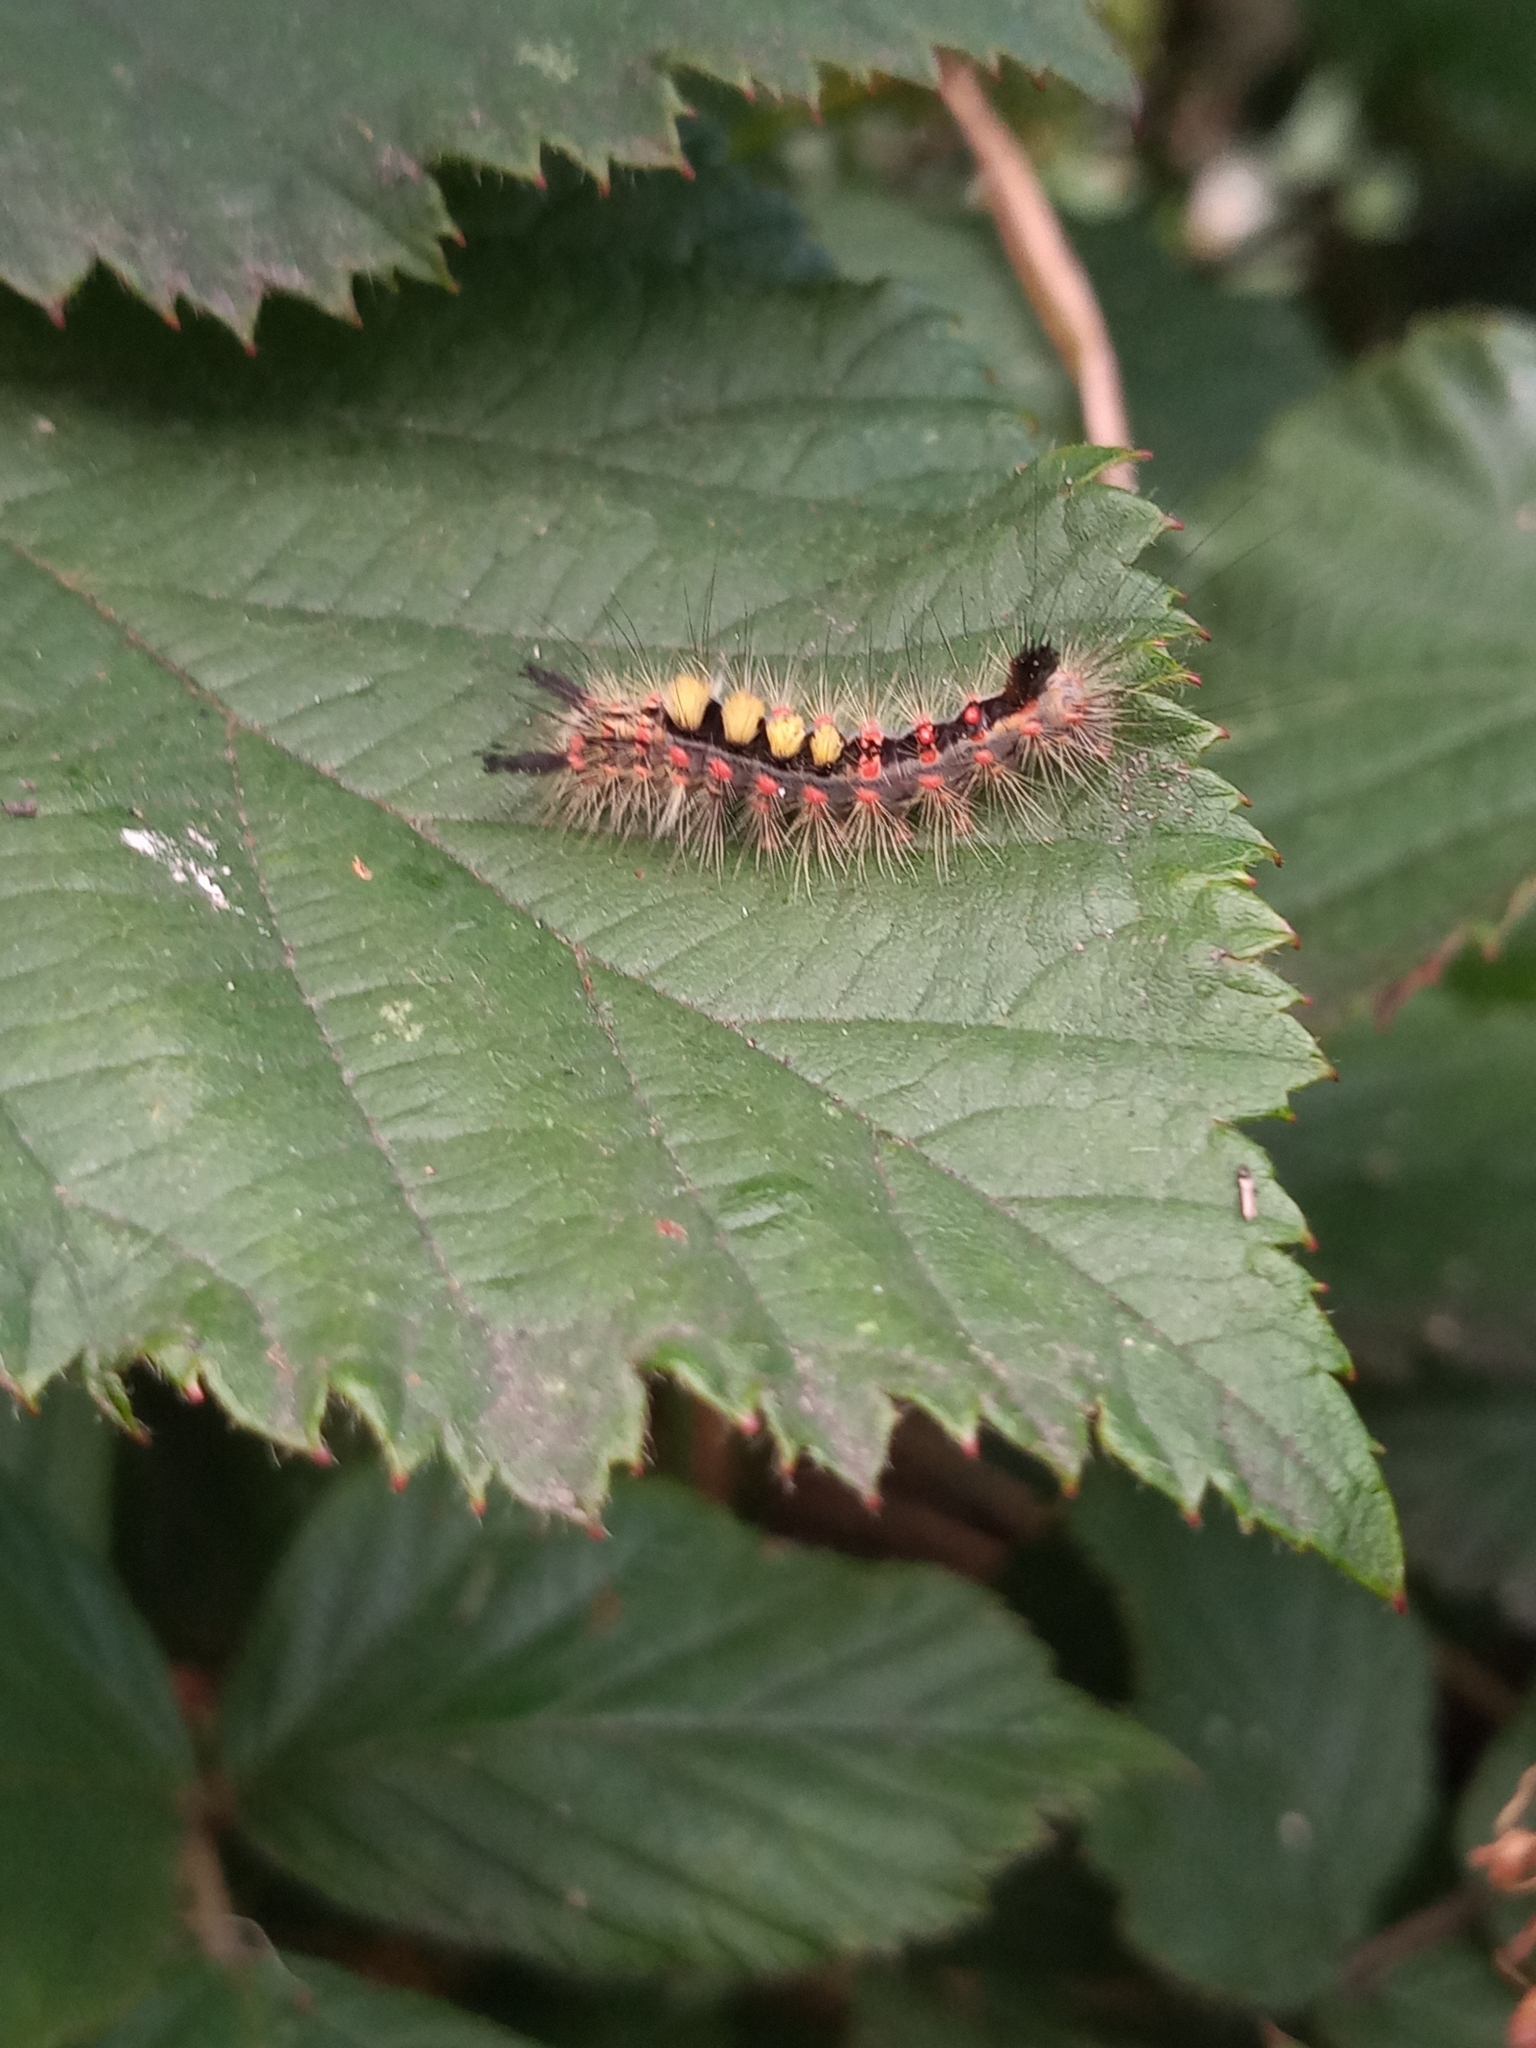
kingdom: Animalia
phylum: Arthropoda
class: Insecta
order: Lepidoptera
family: Erebidae
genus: Orgyia
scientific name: Orgyia antiqua
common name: Vapourer
